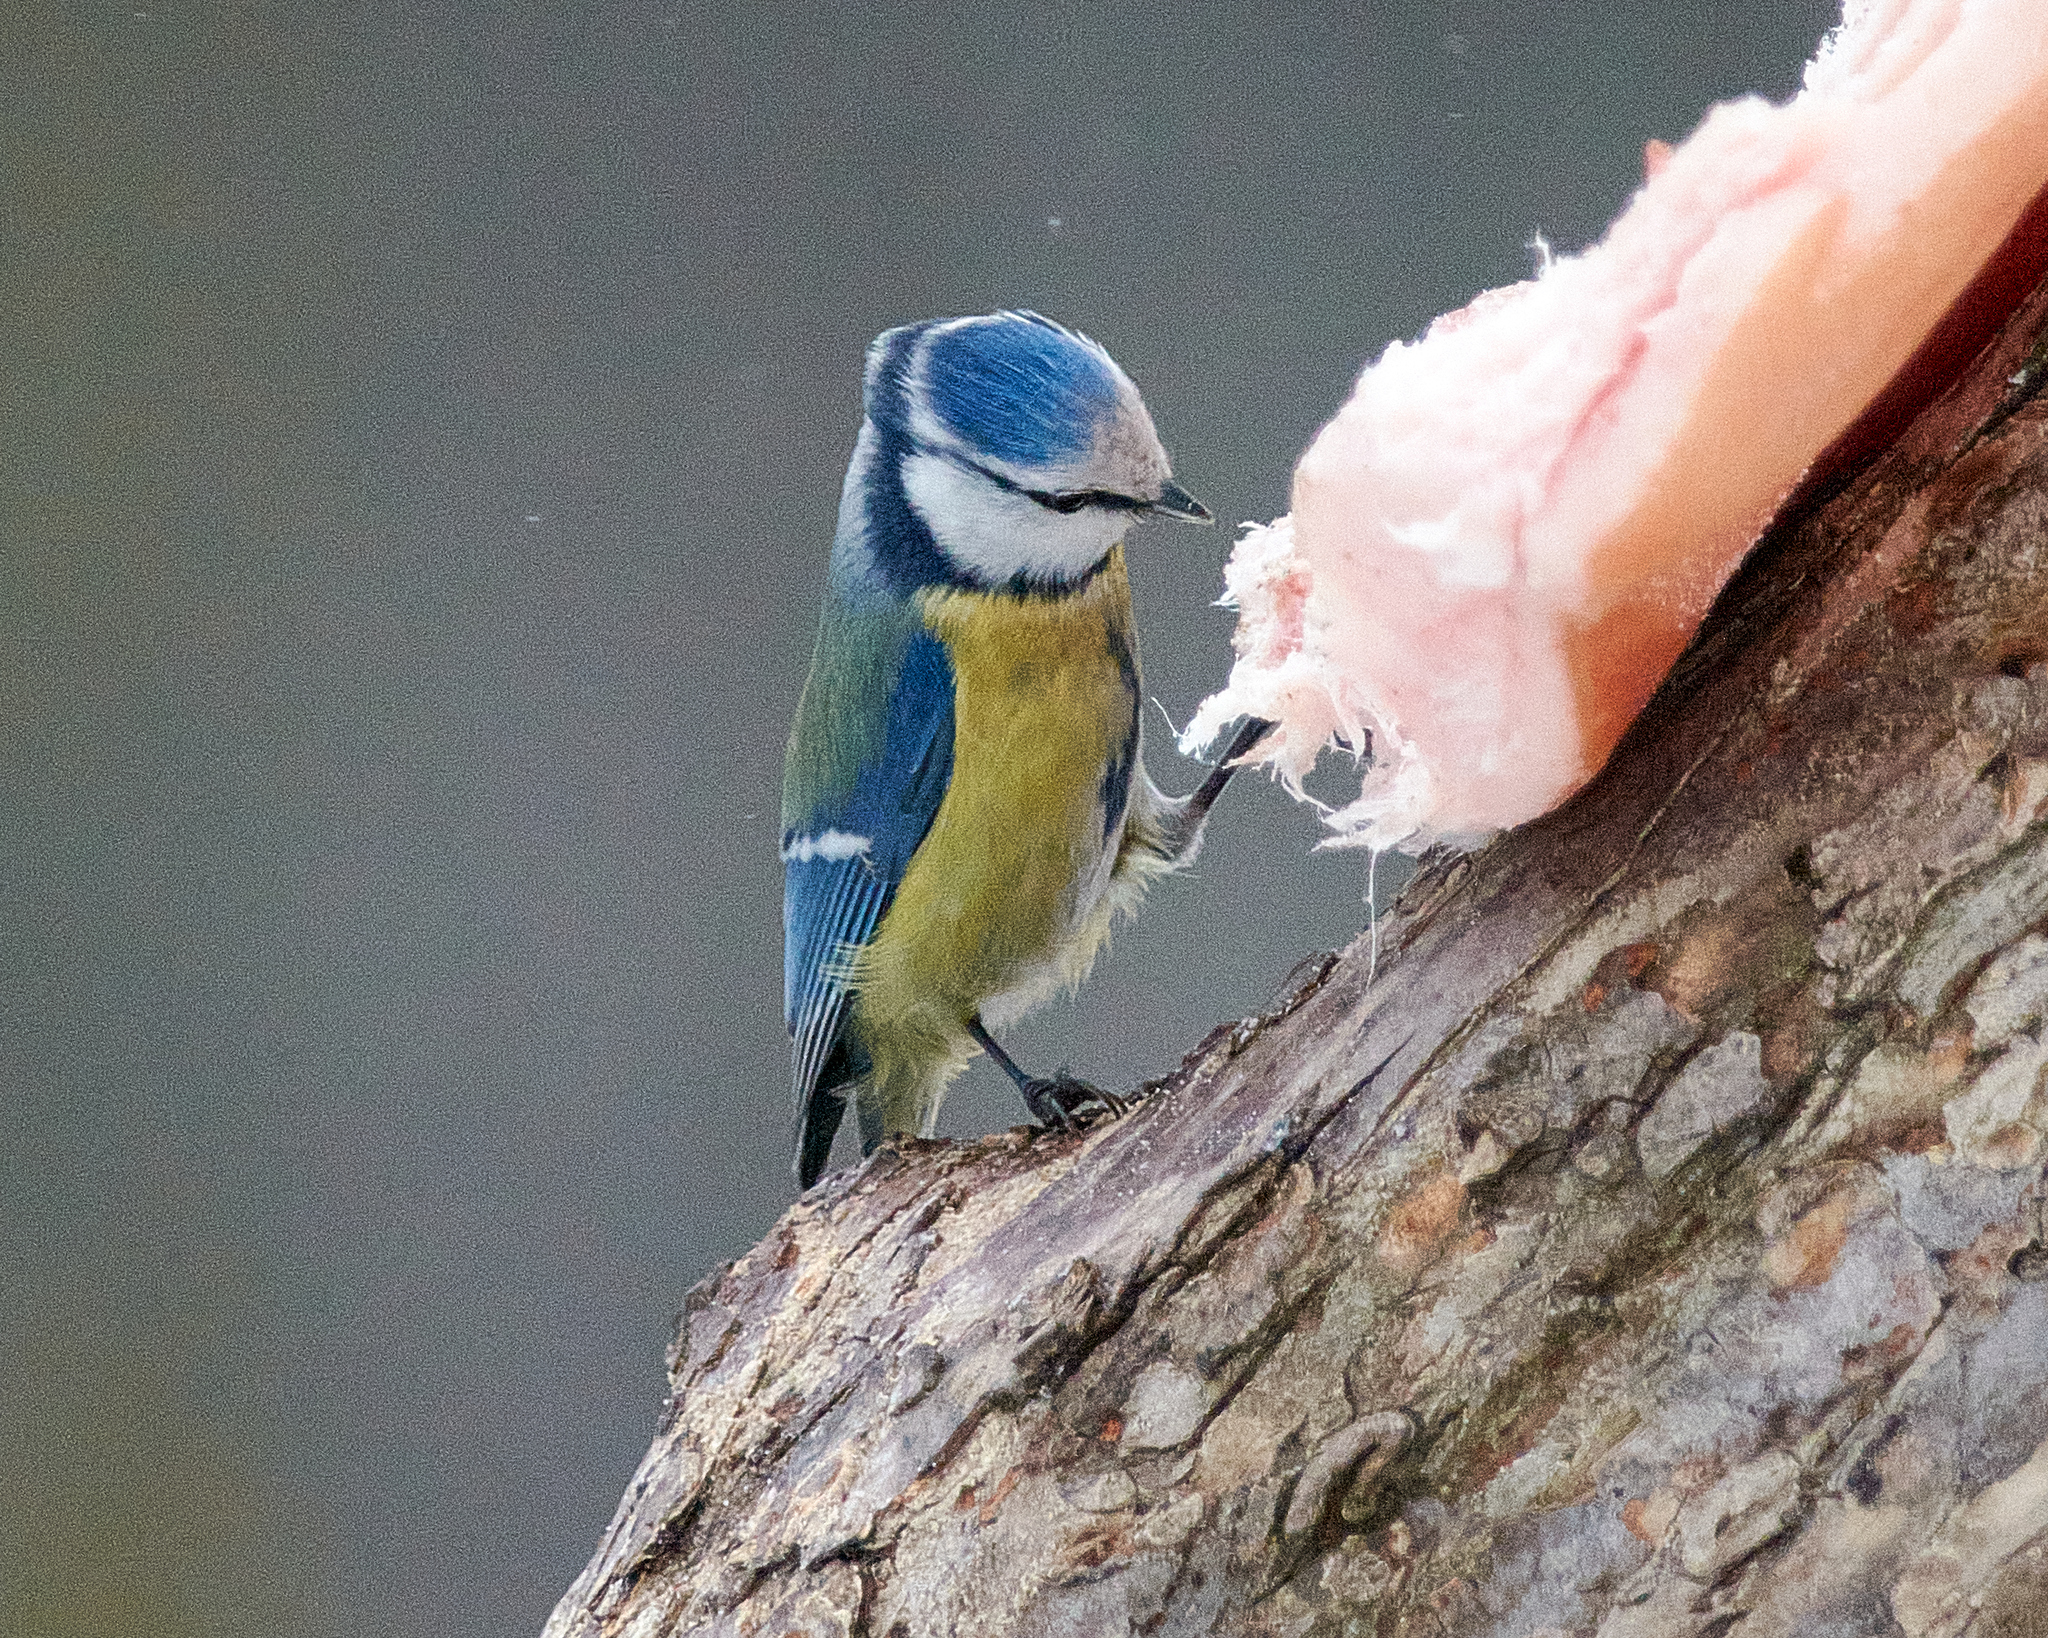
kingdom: Animalia
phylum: Chordata
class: Aves
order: Passeriformes
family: Paridae
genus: Cyanistes
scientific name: Cyanistes caeruleus
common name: Eurasian blue tit
